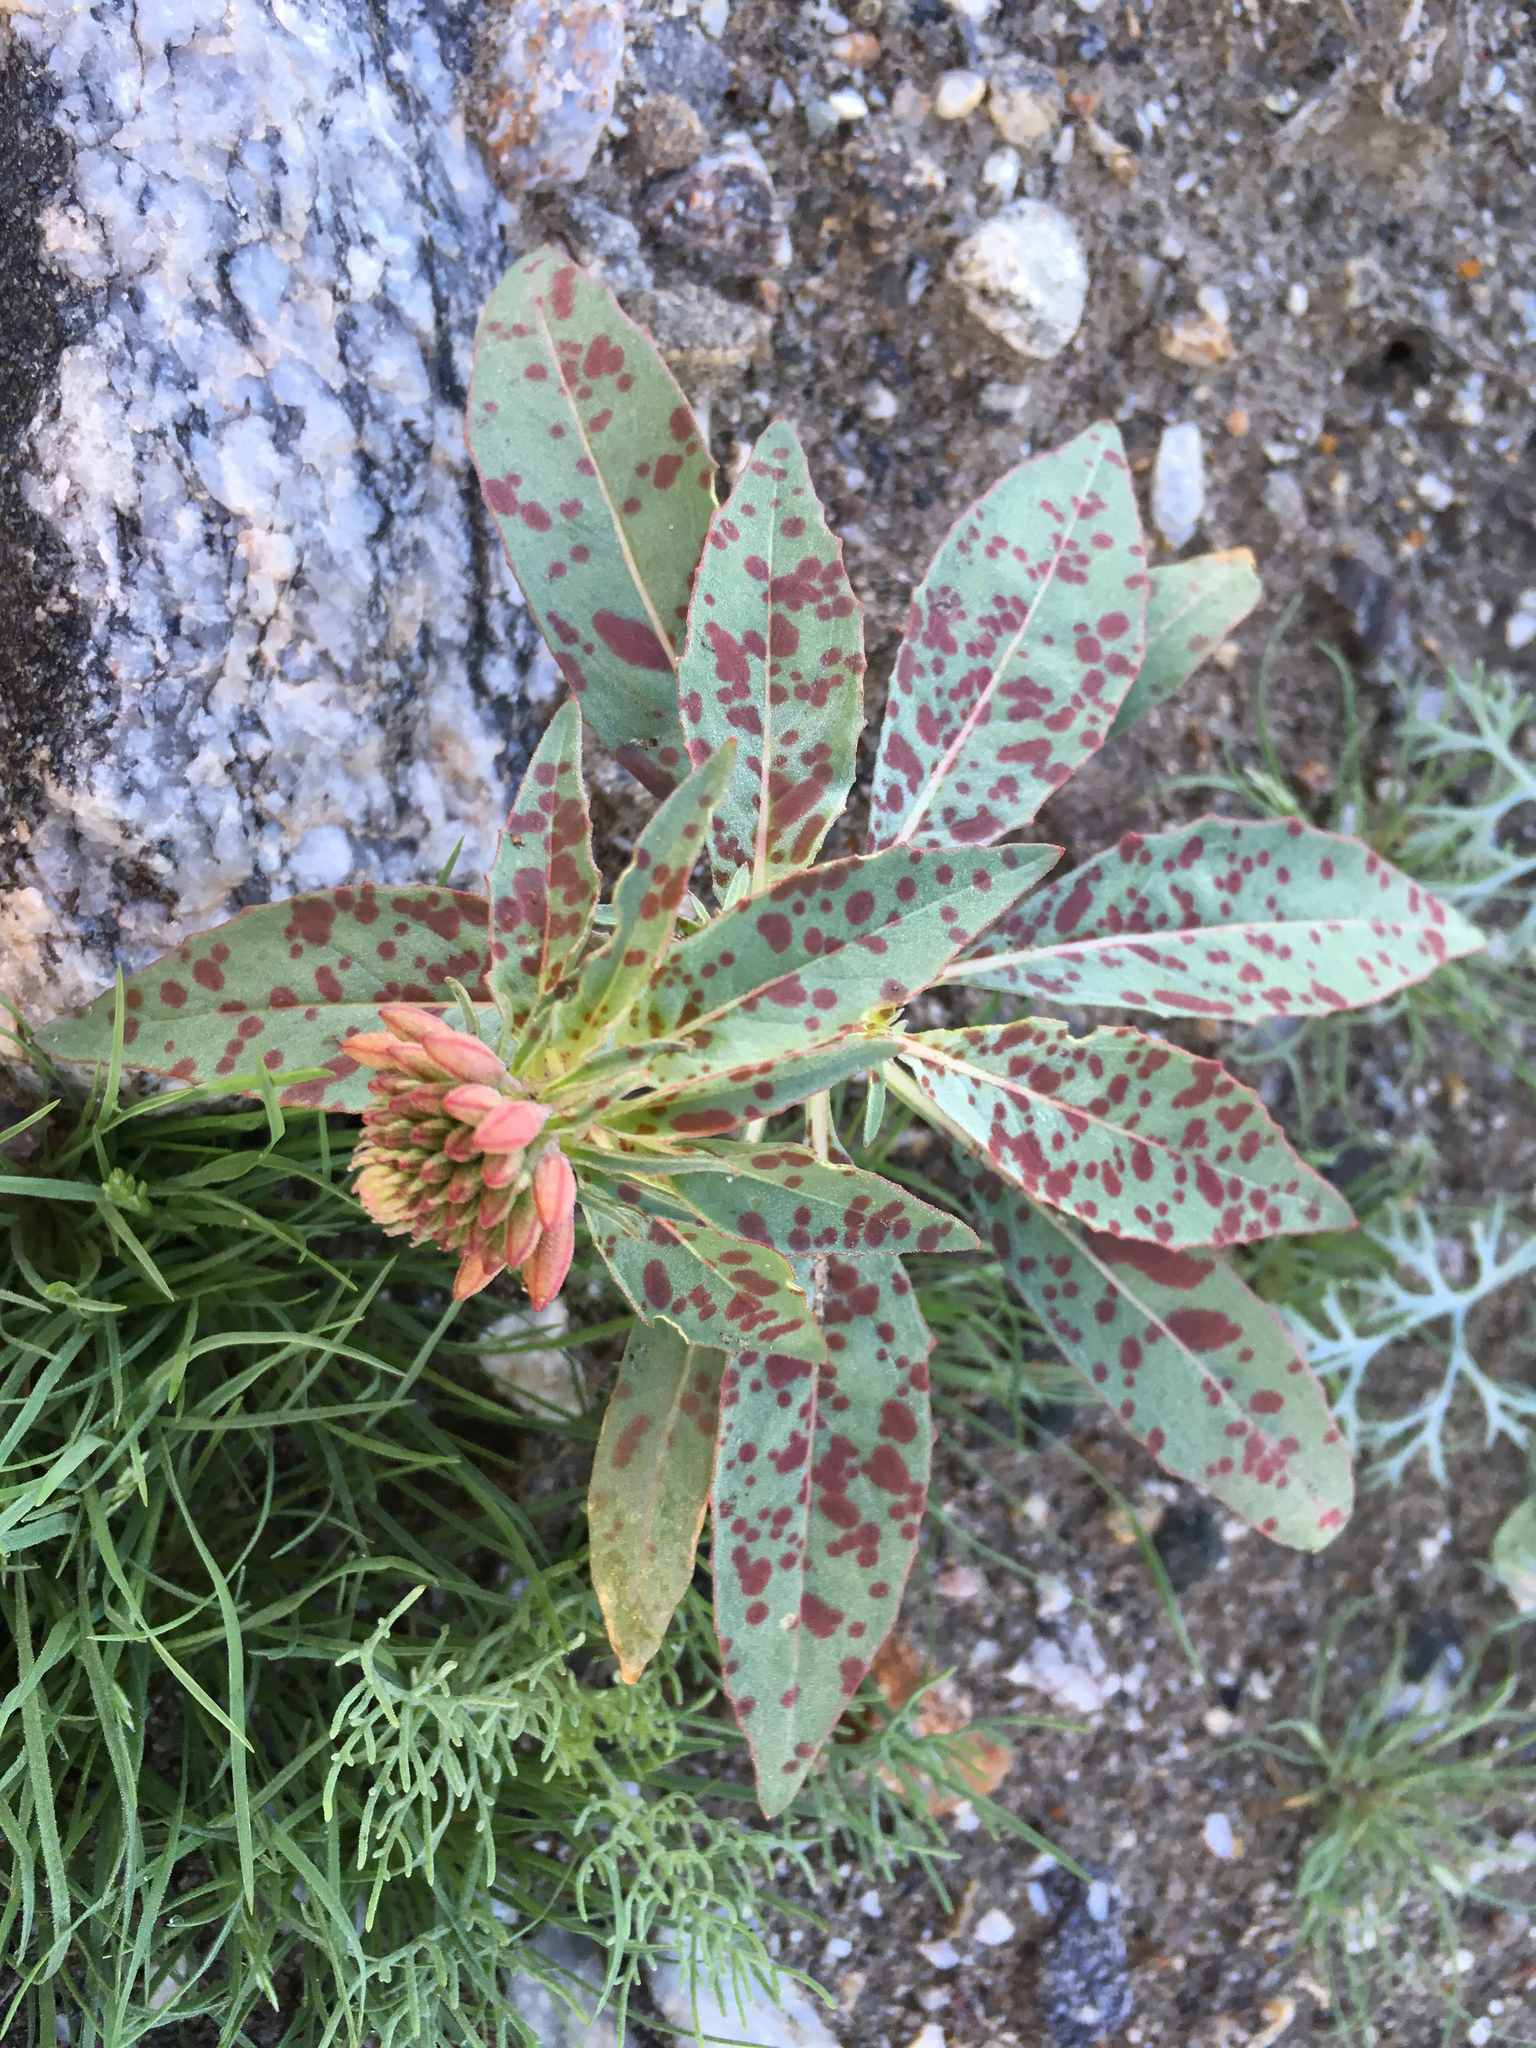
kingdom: Plantae
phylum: Tracheophyta
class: Magnoliopsida
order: Myrtales
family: Onagraceae
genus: Eremothera
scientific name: Eremothera boothii
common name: Booth's evening primrose
